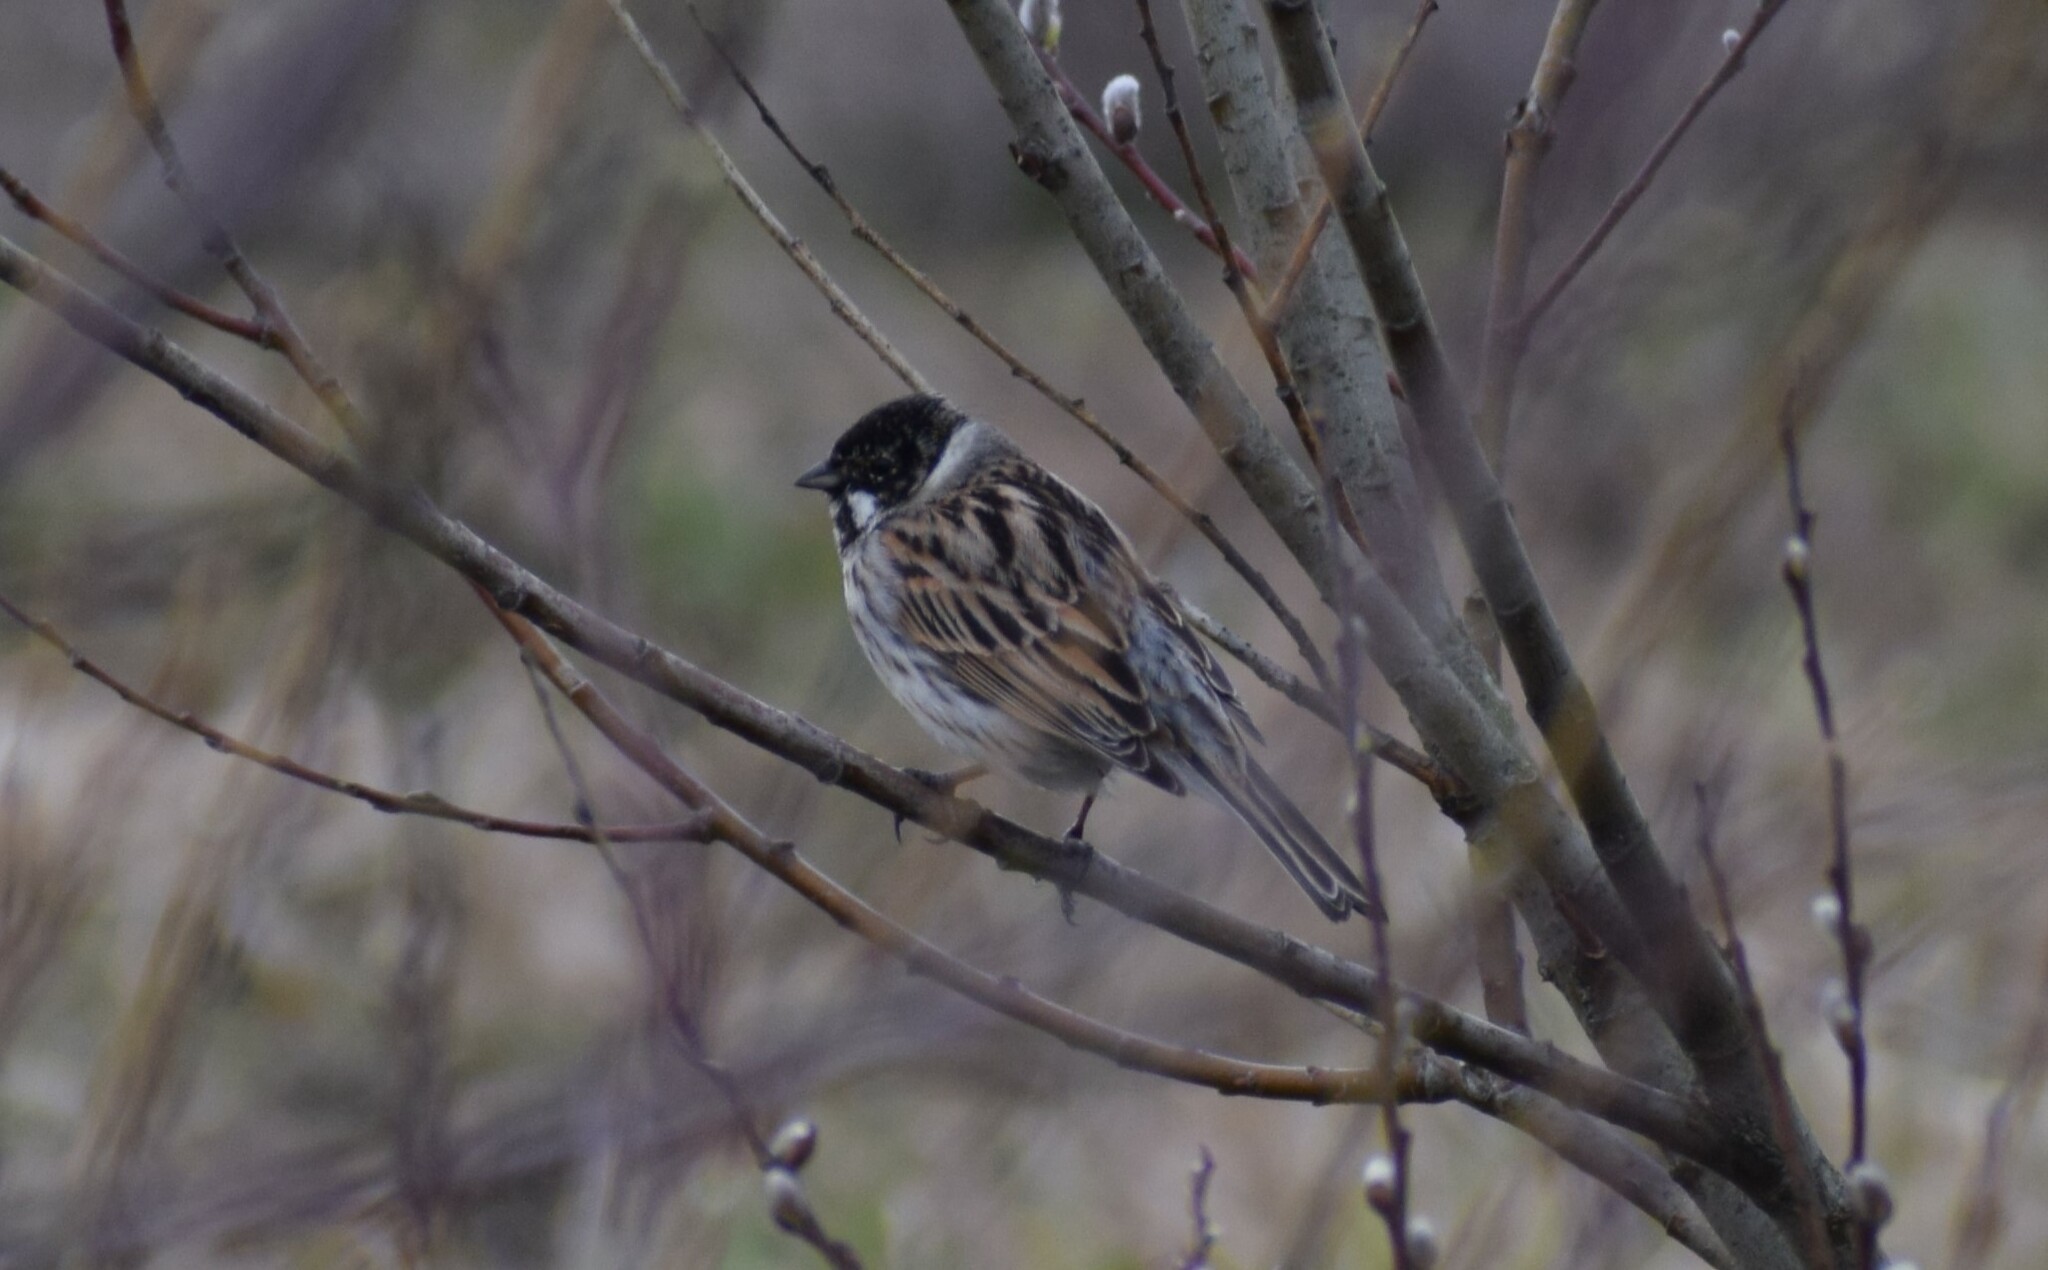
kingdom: Animalia
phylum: Chordata
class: Aves
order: Passeriformes
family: Emberizidae
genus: Emberiza
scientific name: Emberiza schoeniclus
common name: Reed bunting
